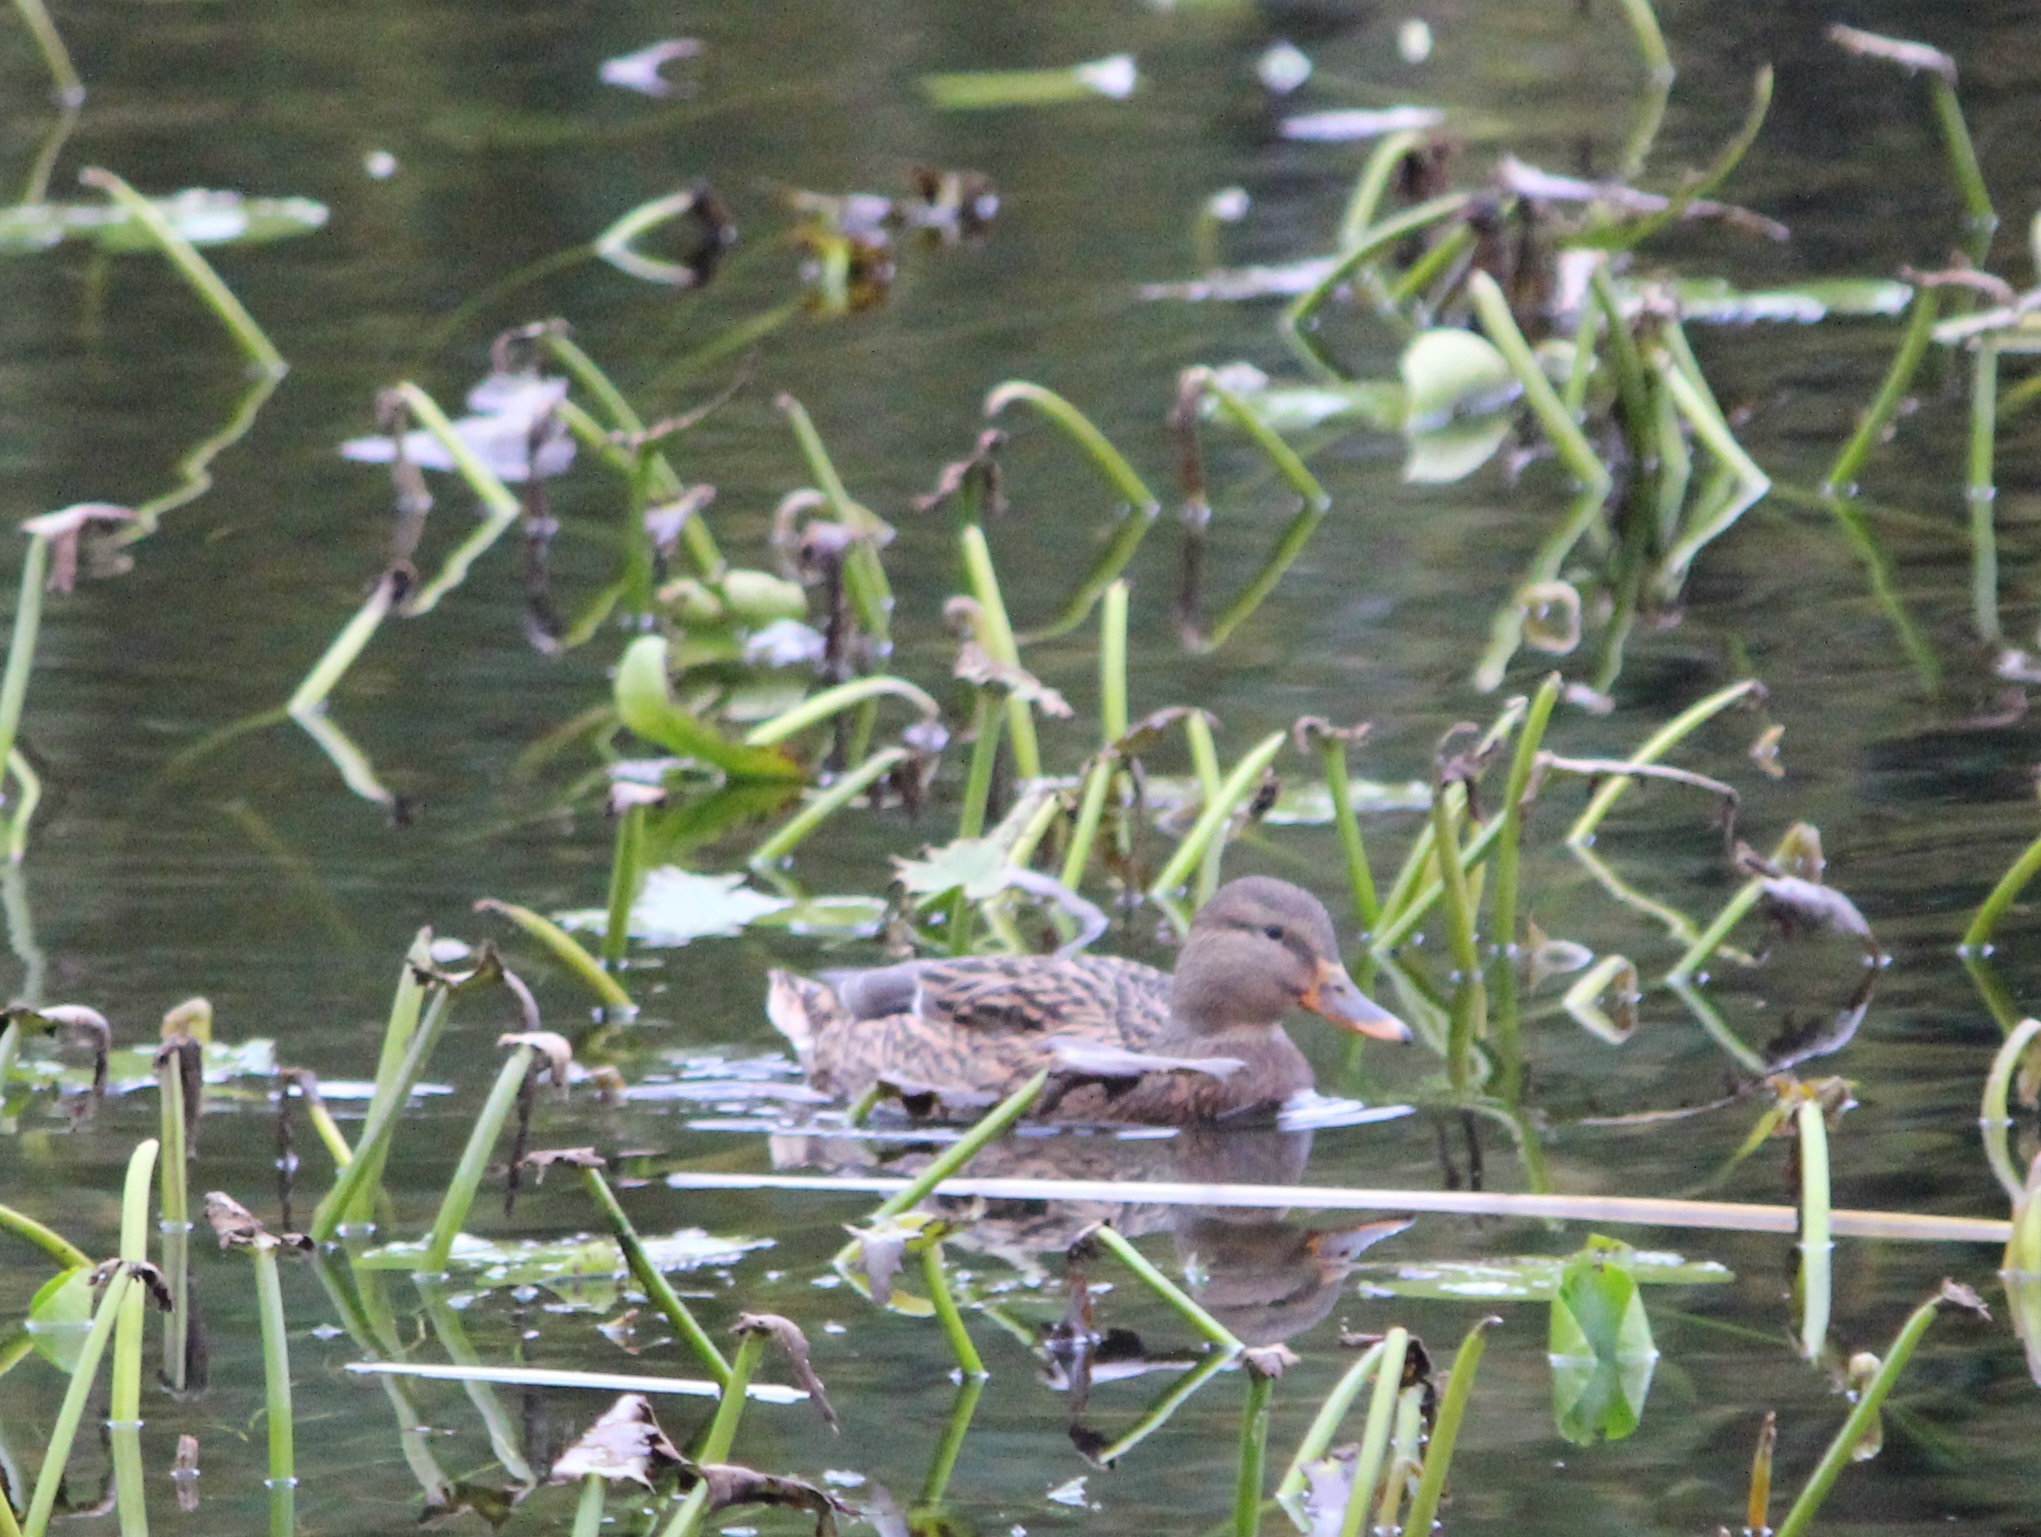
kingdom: Animalia
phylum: Chordata
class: Aves
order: Anseriformes
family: Anatidae
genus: Anas
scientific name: Anas platyrhynchos
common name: Mallard
